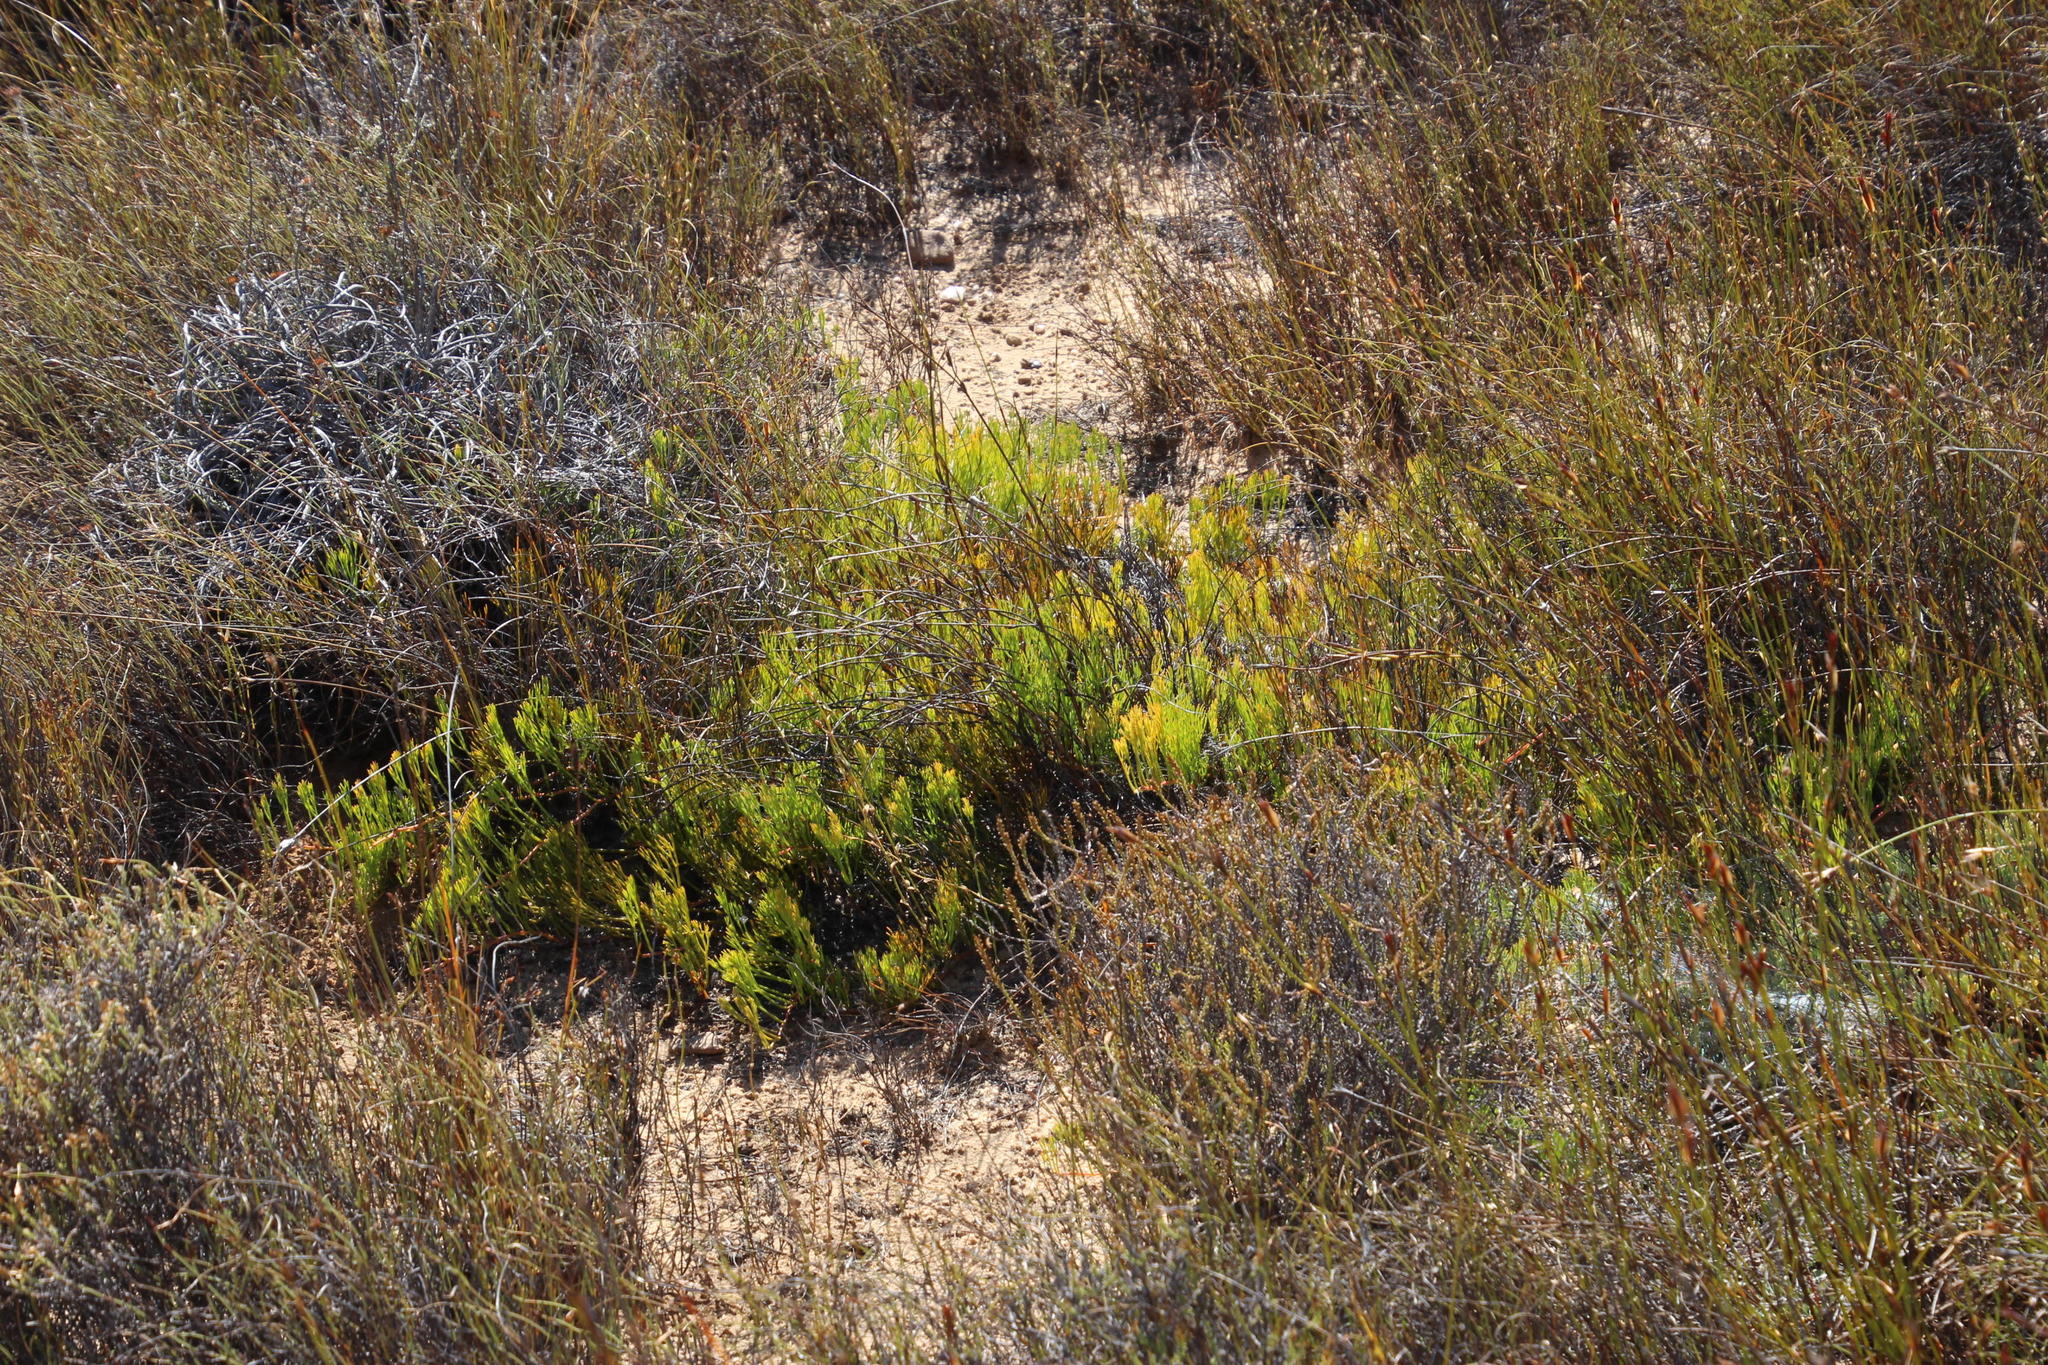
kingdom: Plantae
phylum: Tracheophyta
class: Magnoliopsida
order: Proteales
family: Proteaceae
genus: Serruria
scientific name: Serruria cygnea
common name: Swan spiderhead
